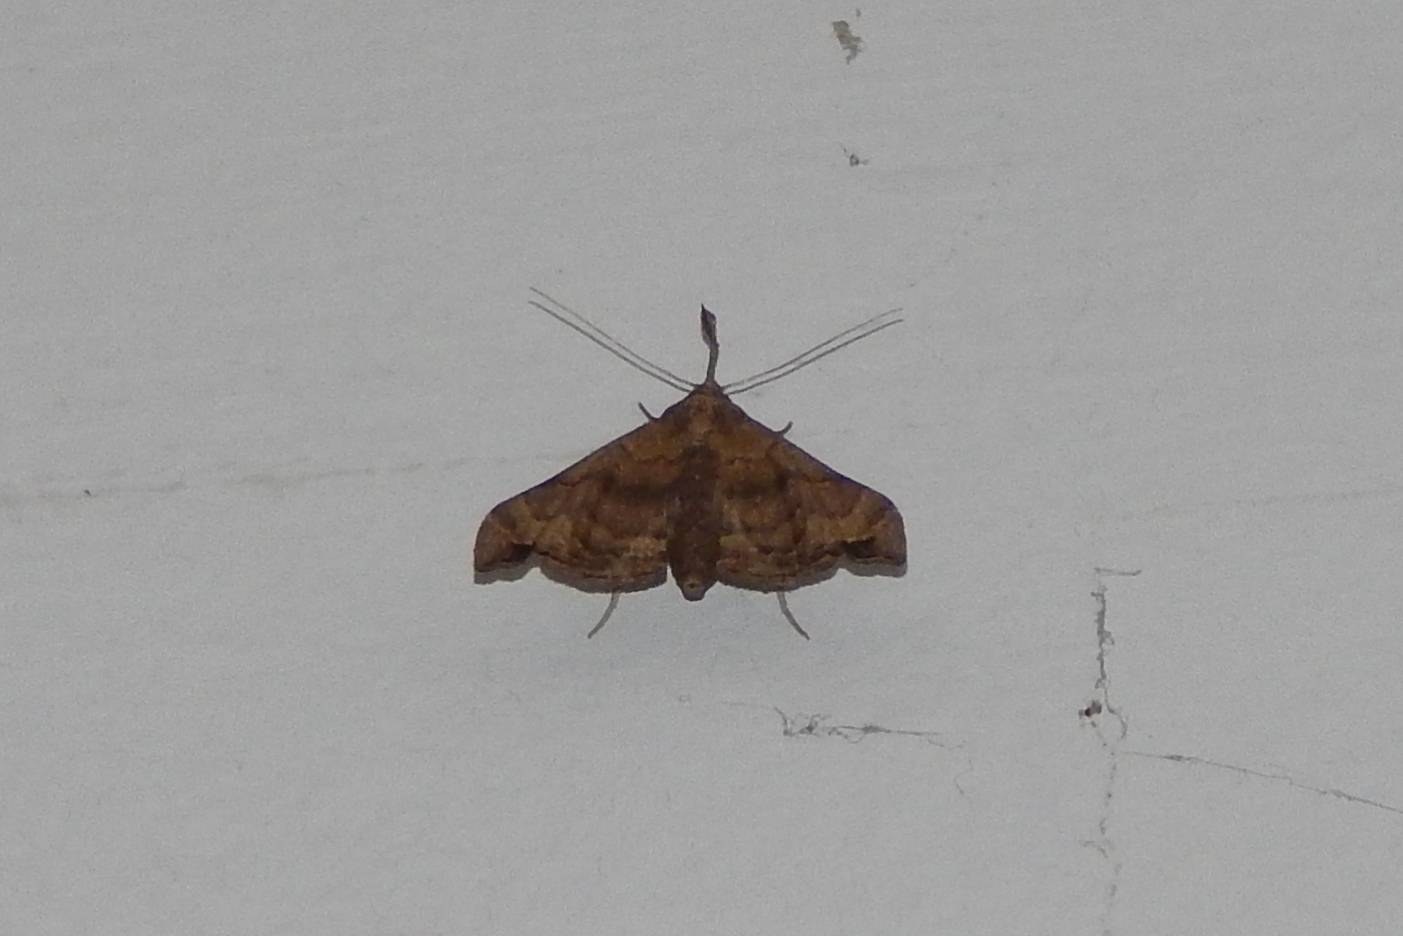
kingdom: Animalia
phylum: Arthropoda
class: Insecta
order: Lepidoptera
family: Erebidae
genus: Palthis
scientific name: Palthis asopialis
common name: Faint-spotted palthis moth
